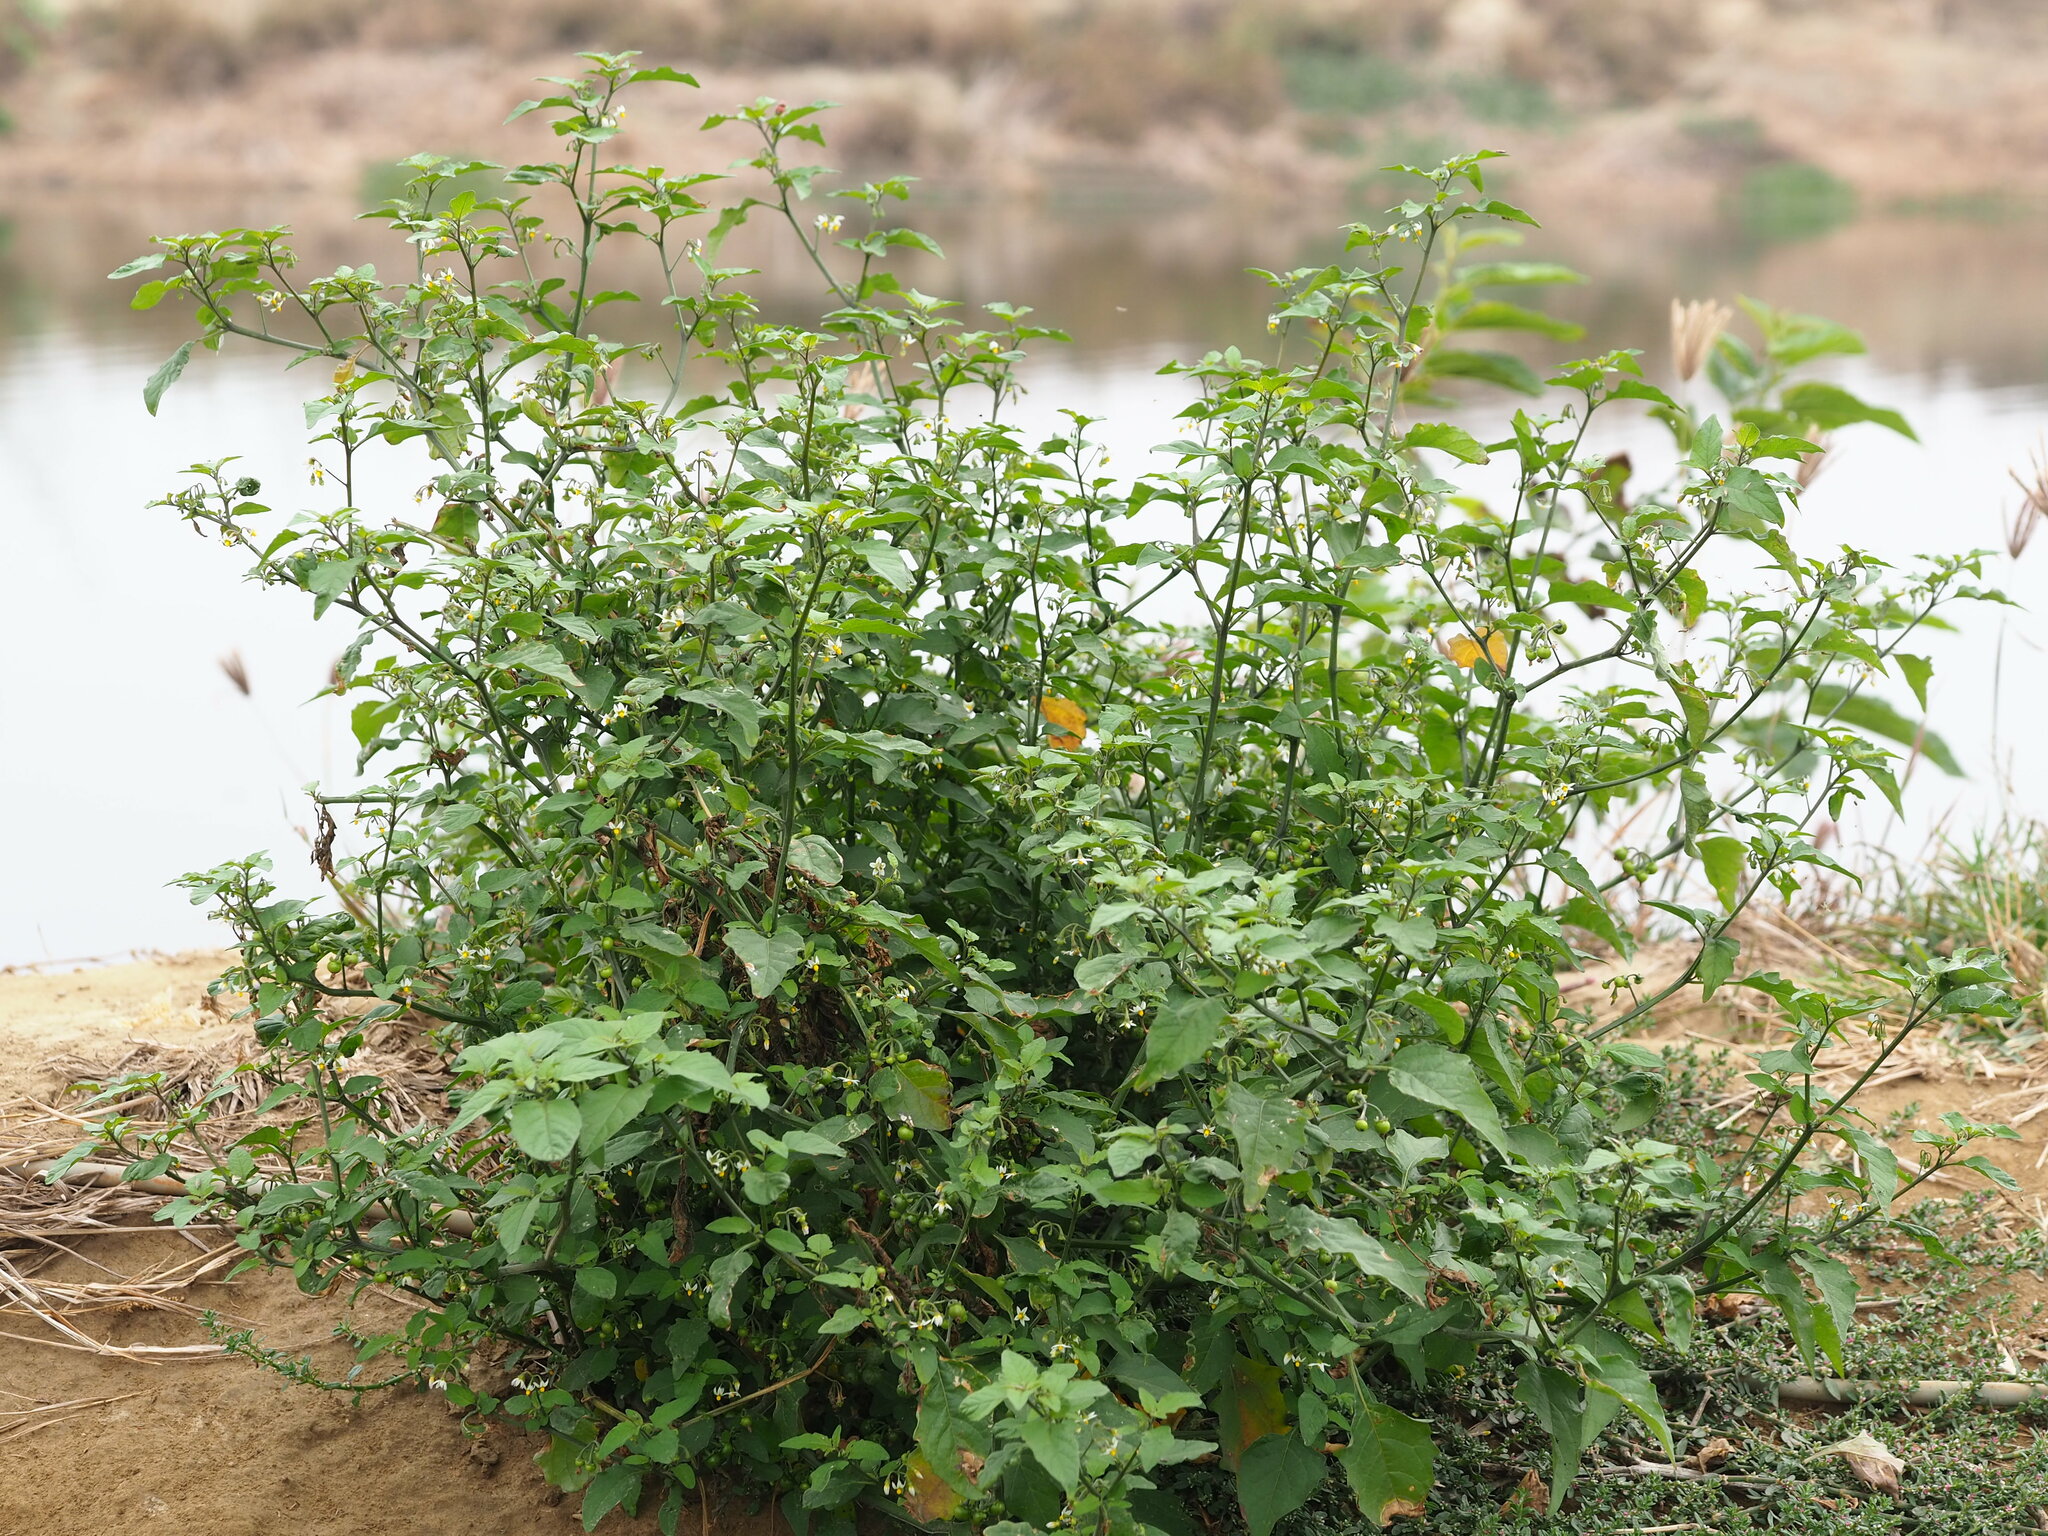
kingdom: Plantae
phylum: Tracheophyta
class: Magnoliopsida
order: Solanales
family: Solanaceae
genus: Solanum
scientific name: Solanum americanum
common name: American black nightshade
